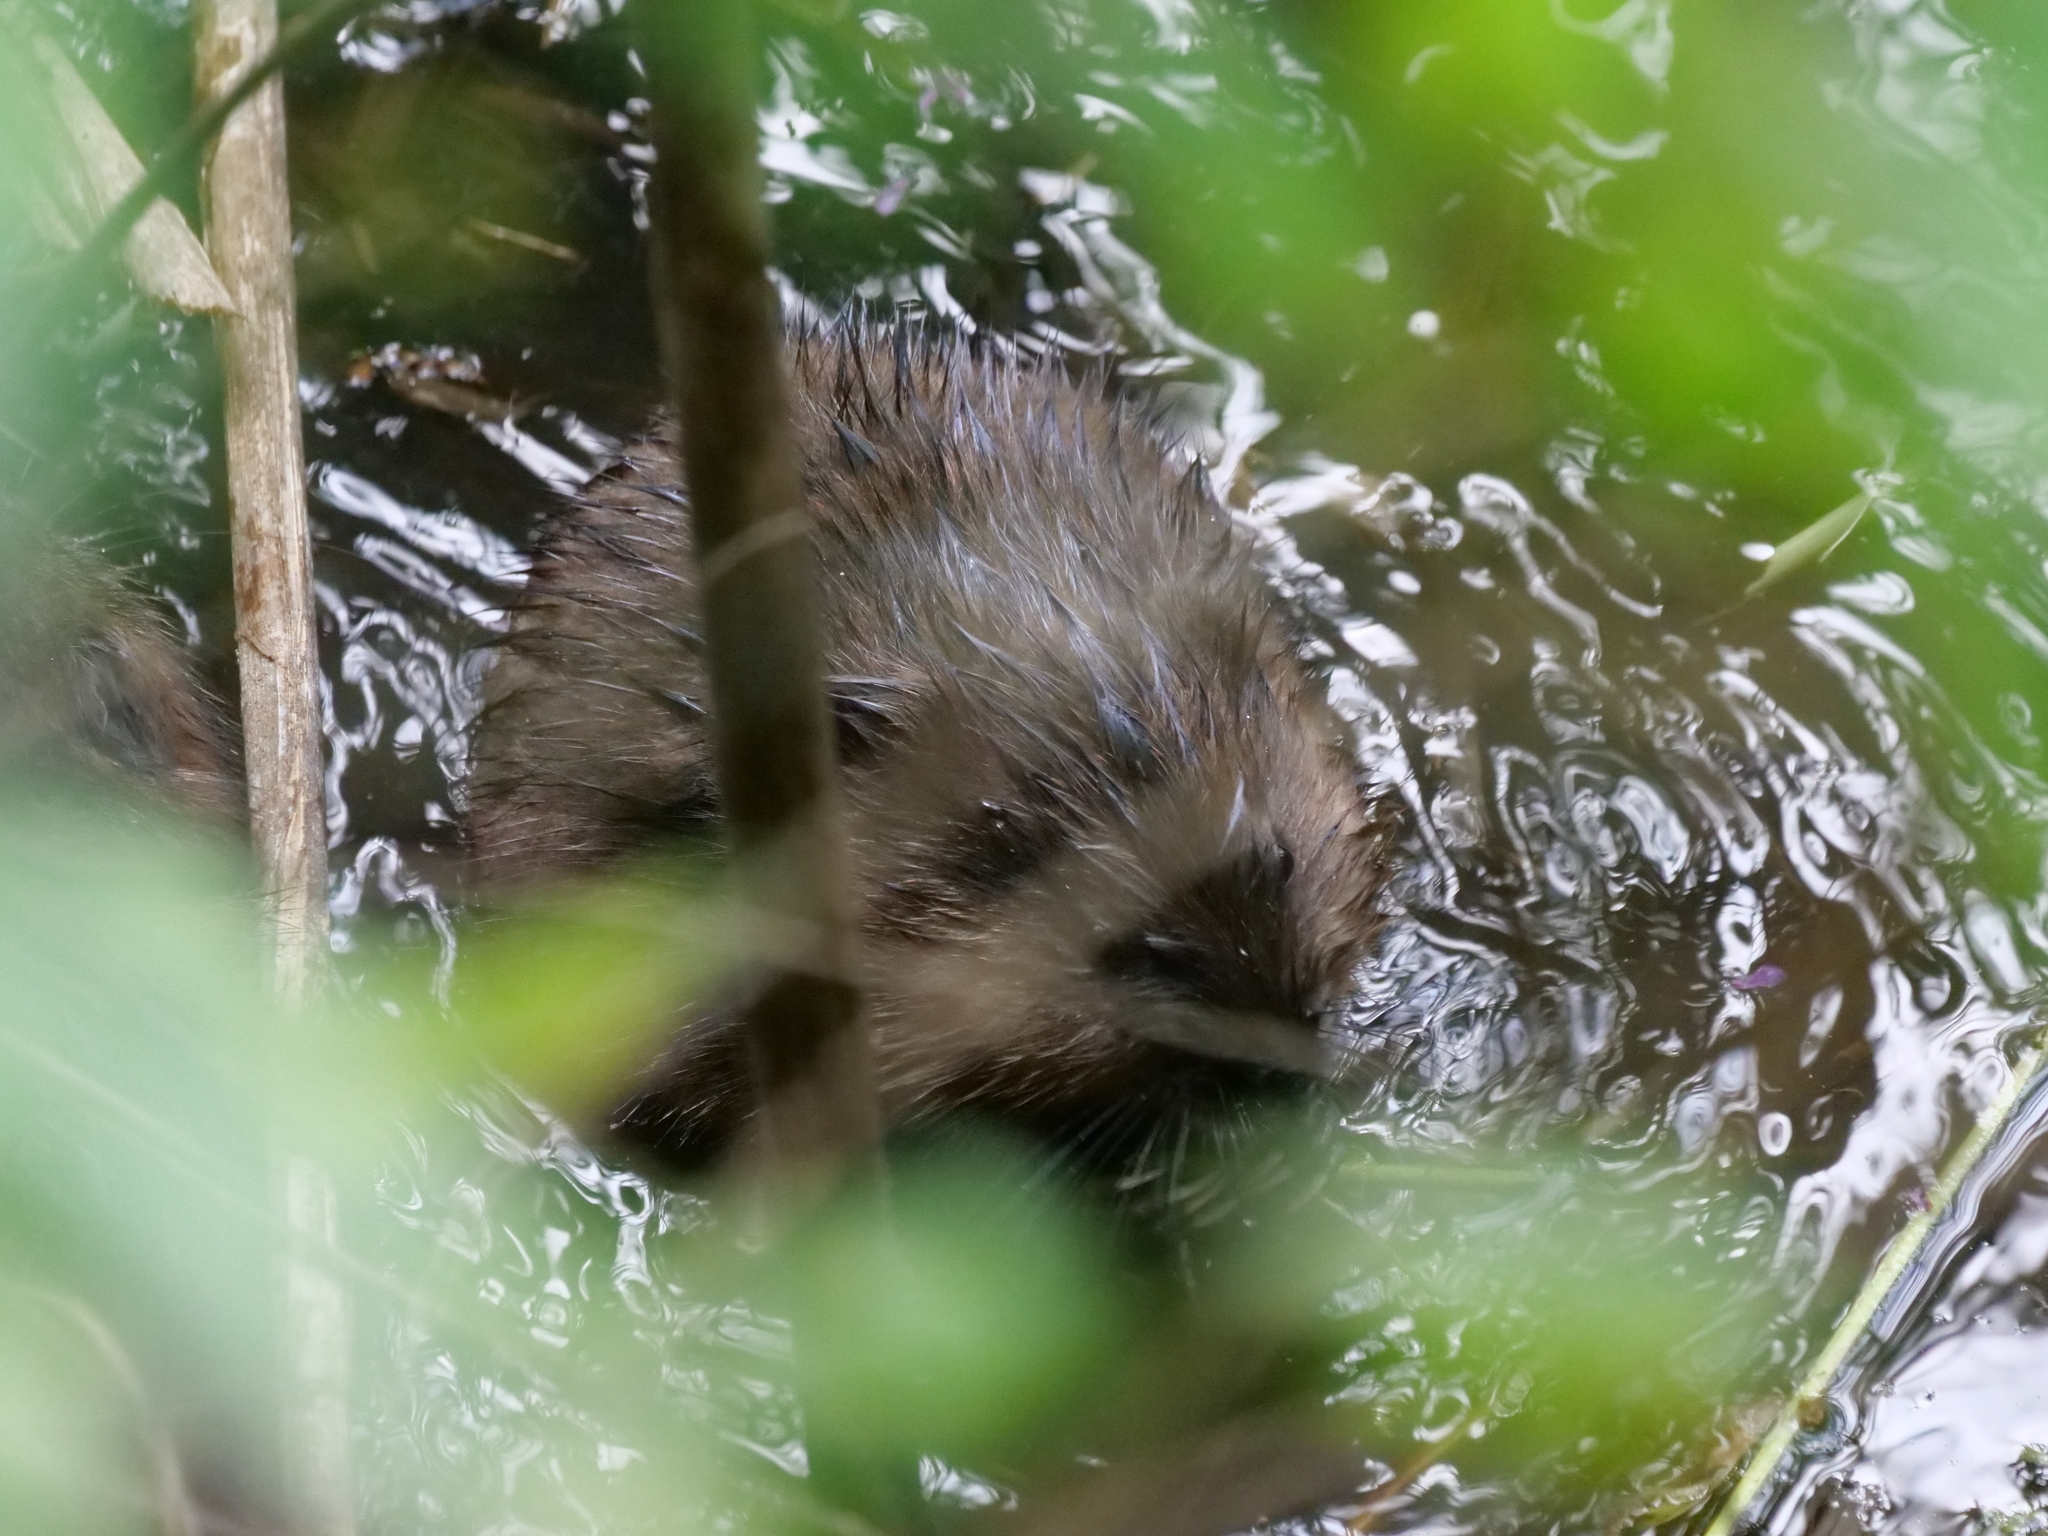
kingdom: Animalia
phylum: Chordata
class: Mammalia
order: Rodentia
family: Cricetidae
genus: Ondatra
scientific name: Ondatra zibethicus
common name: Muskrat
